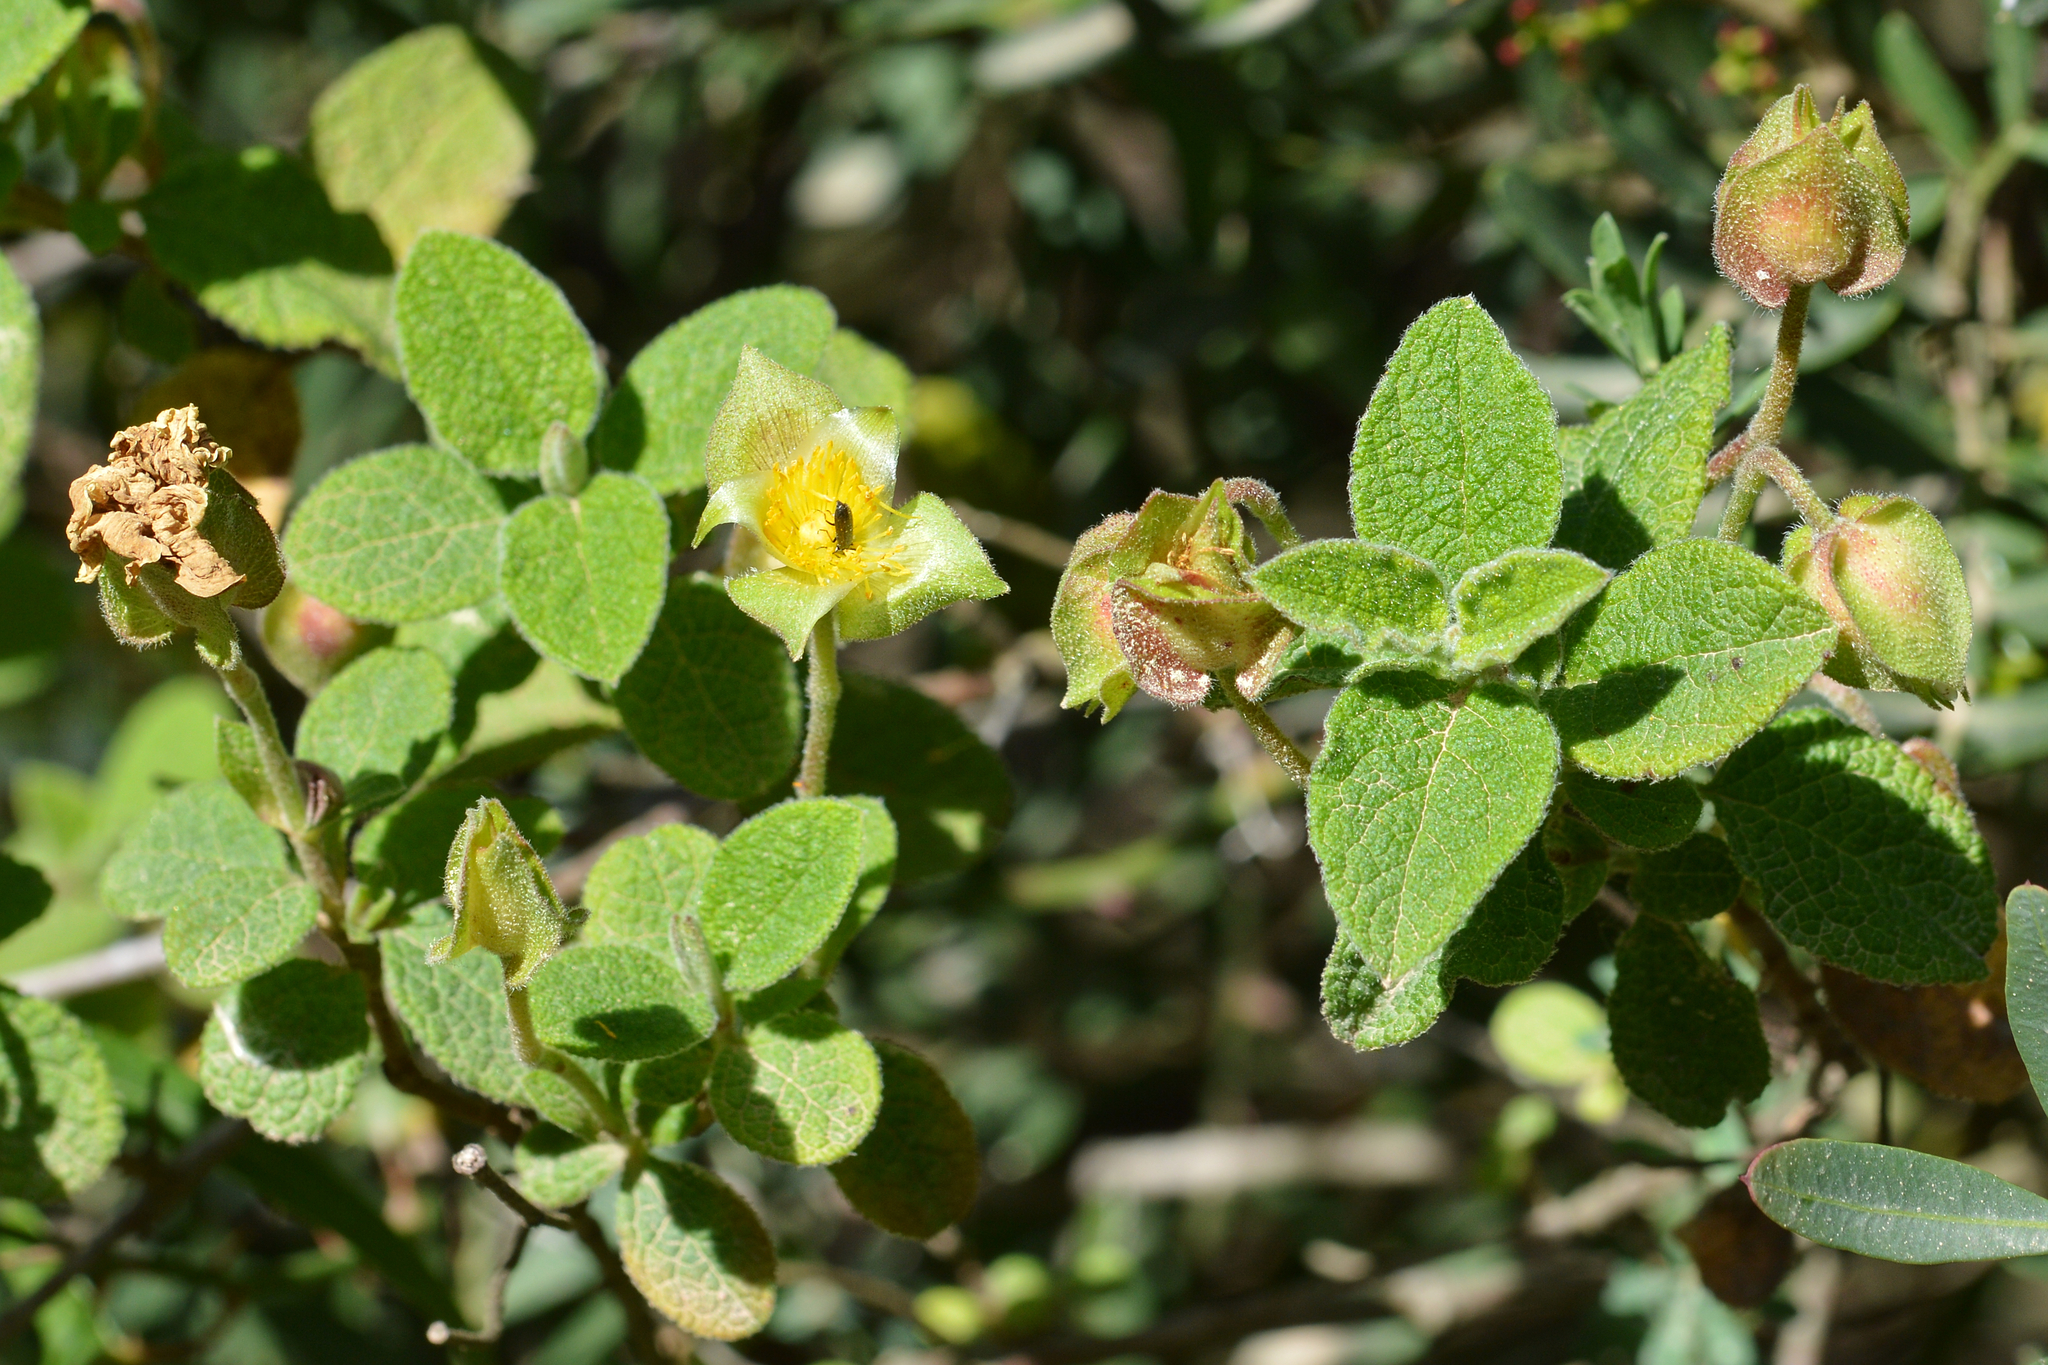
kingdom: Plantae
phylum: Tracheophyta
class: Magnoliopsida
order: Malvales
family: Cistaceae
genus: Cistus
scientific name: Cistus salviifolius
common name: Salvia cistus
